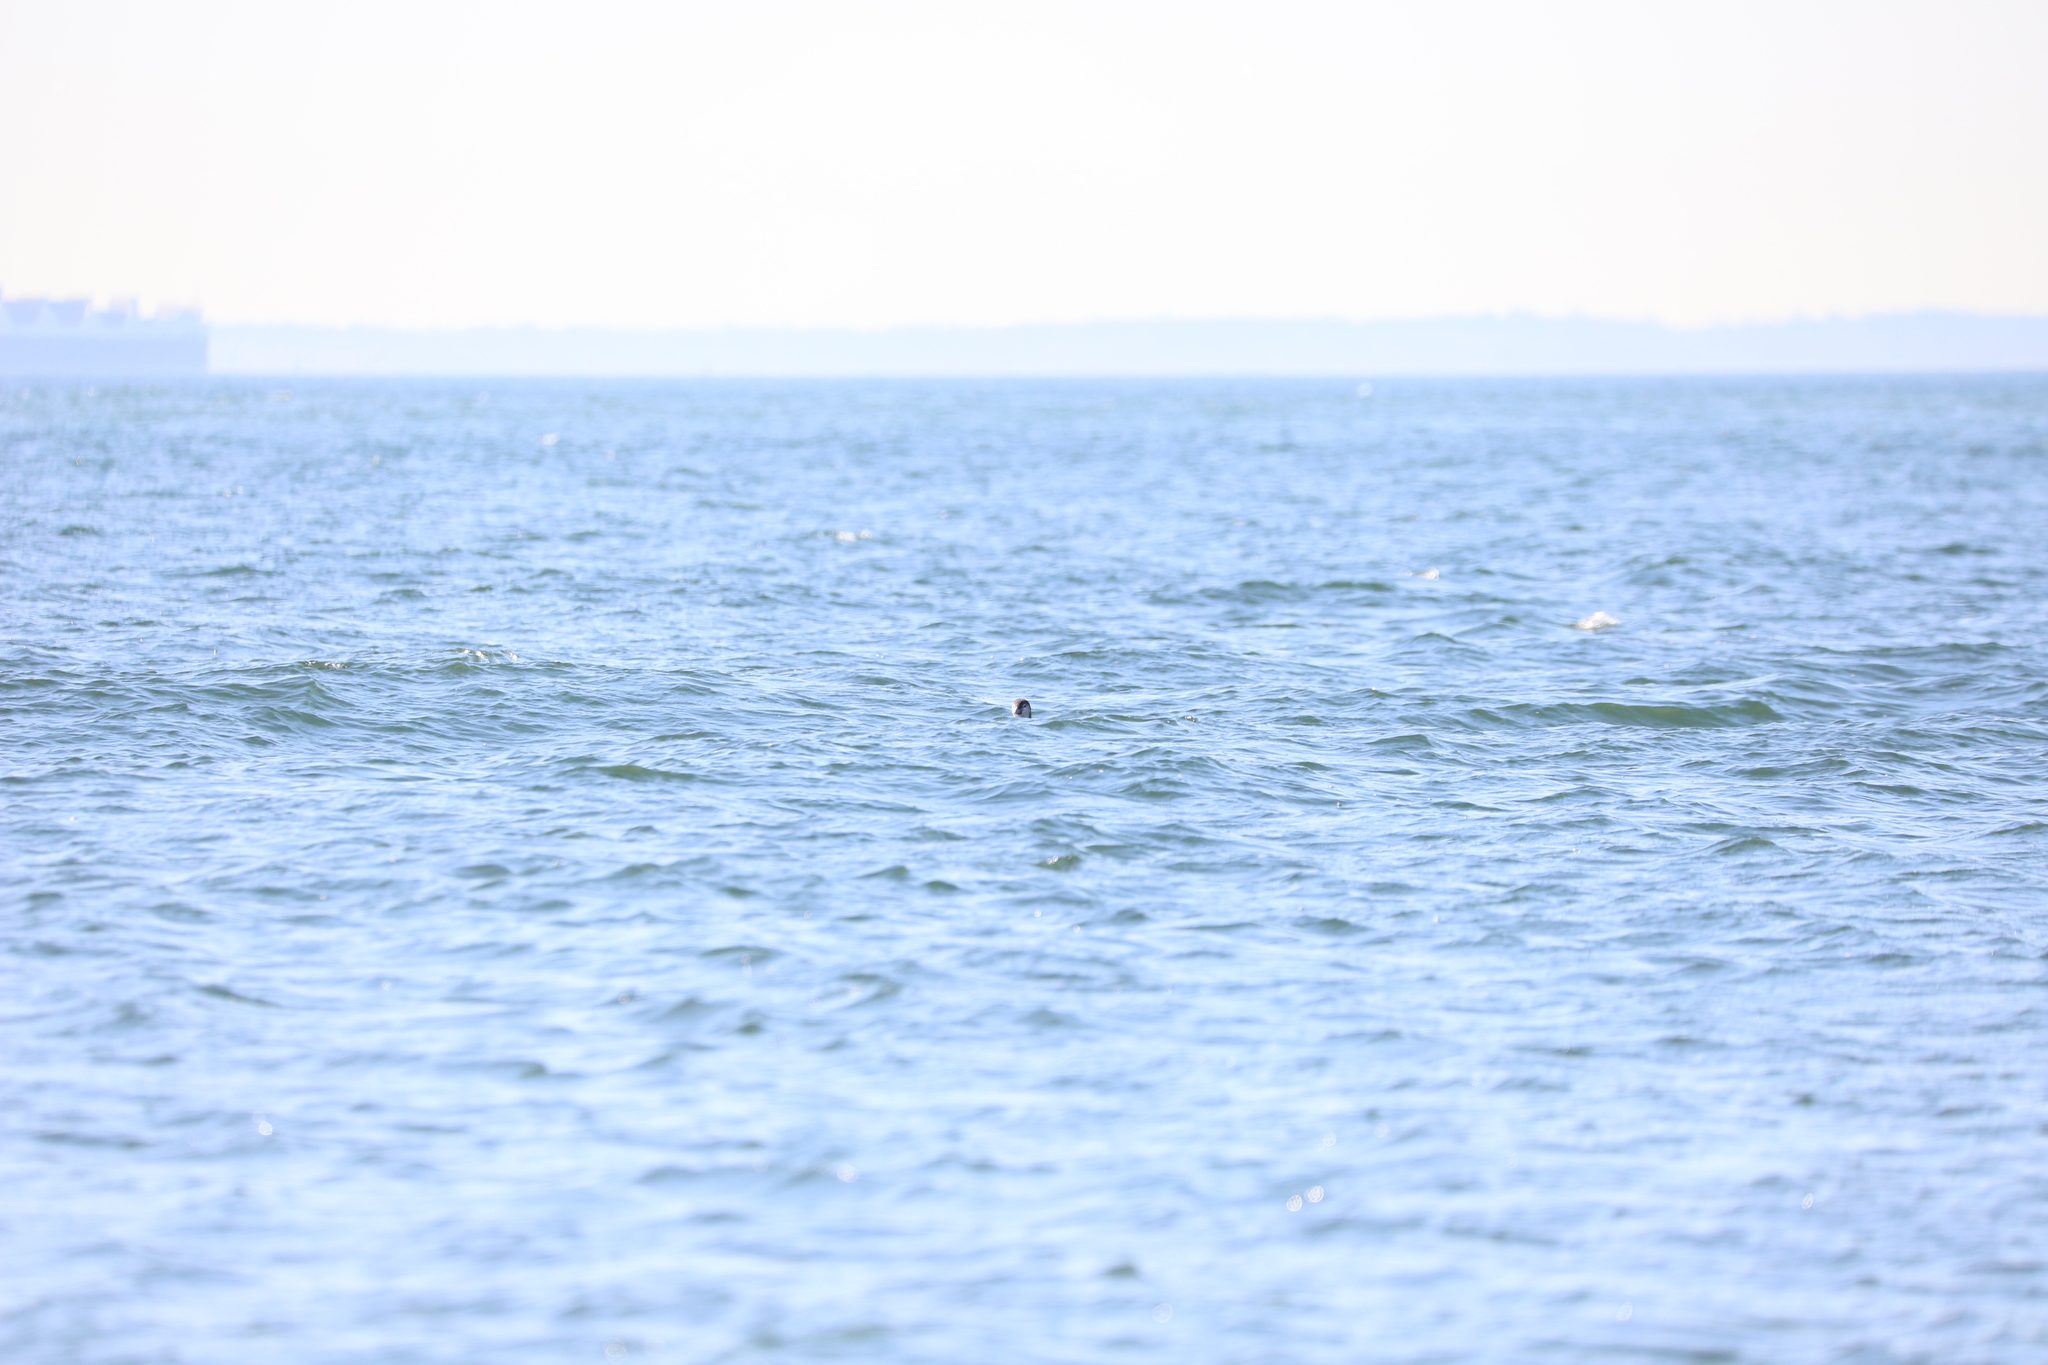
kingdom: Animalia
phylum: Chordata
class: Aves
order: Gaviiformes
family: Gaviidae
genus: Gavia
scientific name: Gavia stellata
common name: Red-throated loon
